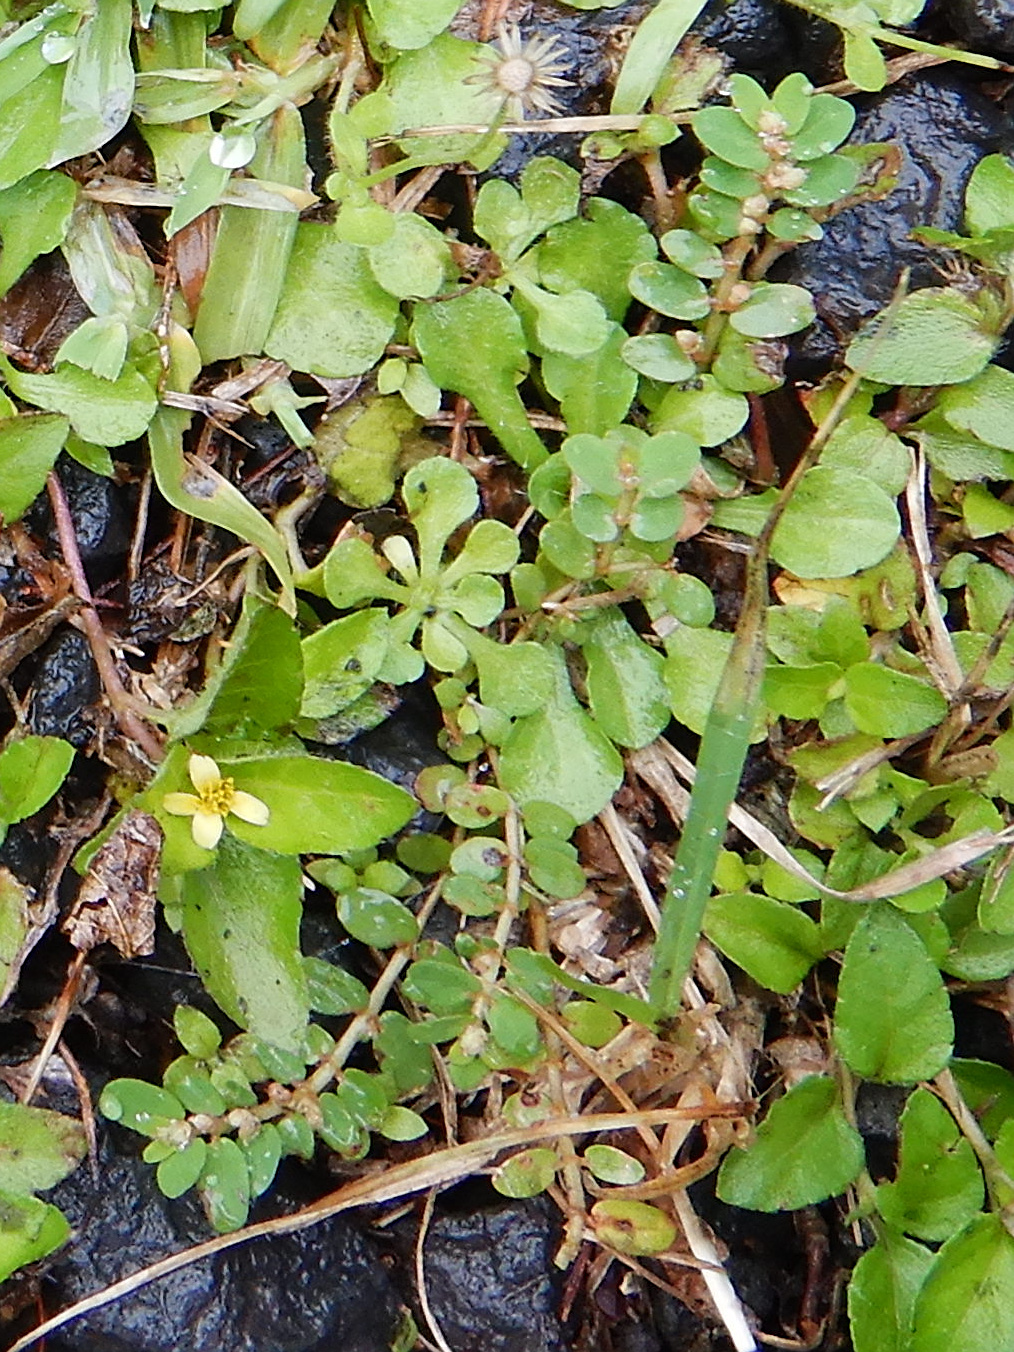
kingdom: Plantae
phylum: Tracheophyta
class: Magnoliopsida
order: Malpighiales
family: Euphorbiaceae
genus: Euphorbia
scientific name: Euphorbia thymifolia
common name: Gulf sandmat
